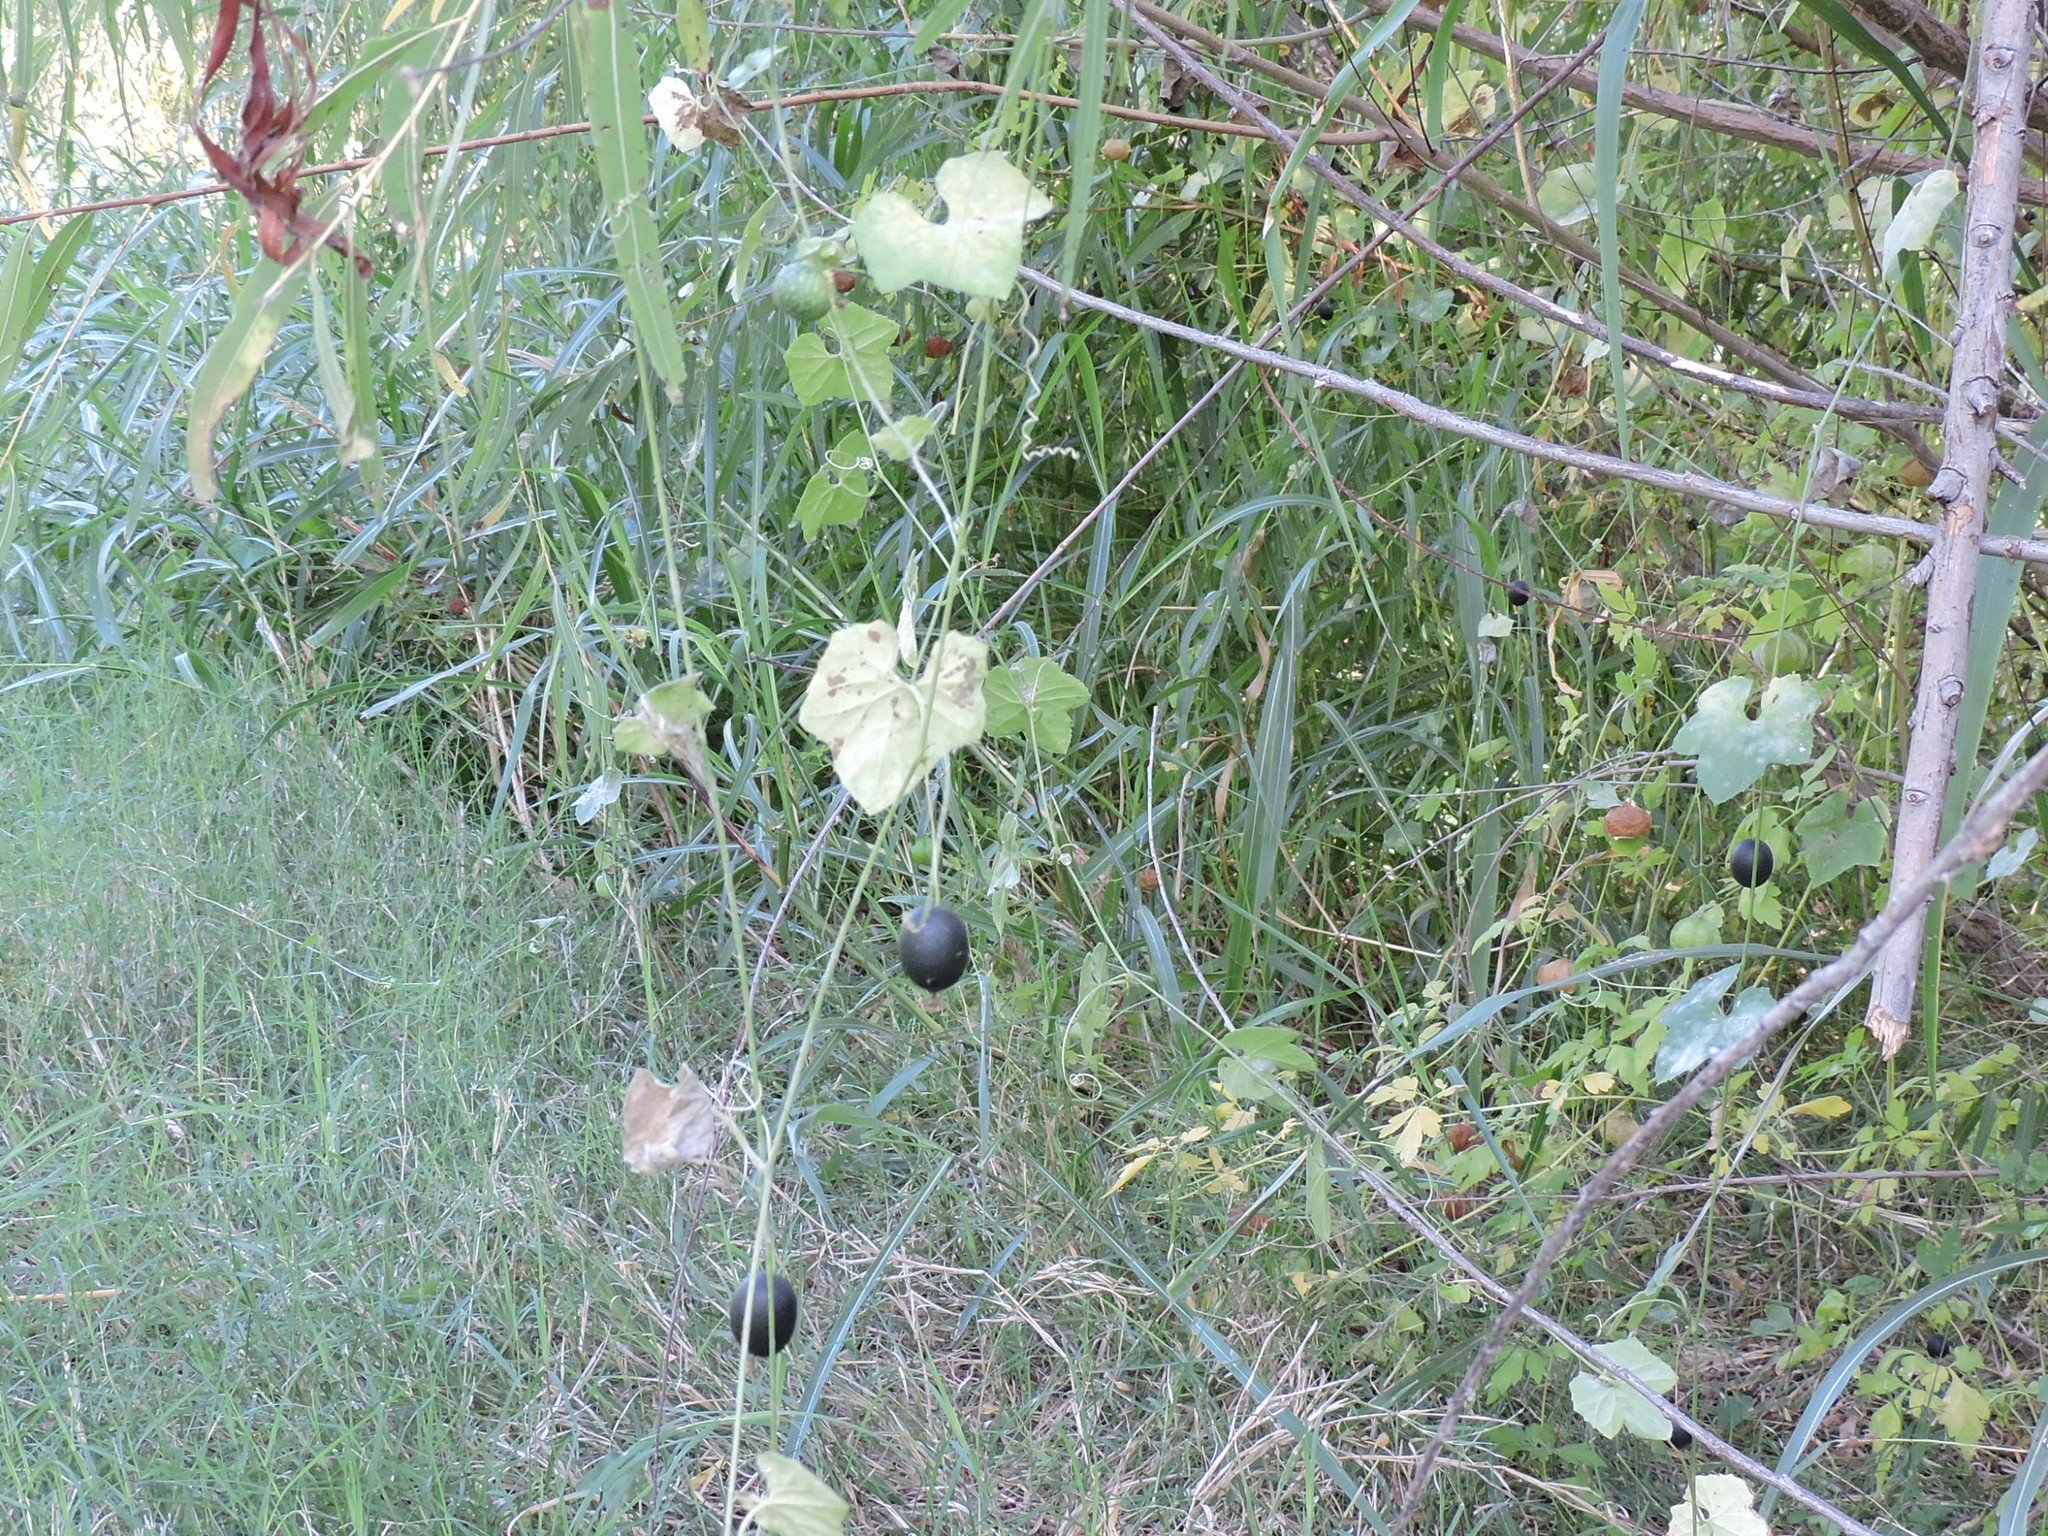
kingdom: Plantae
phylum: Tracheophyta
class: Magnoliopsida
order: Cucurbitales
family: Cucurbitaceae
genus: Melothria
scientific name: Melothria pendula
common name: Creeping-cucumber
